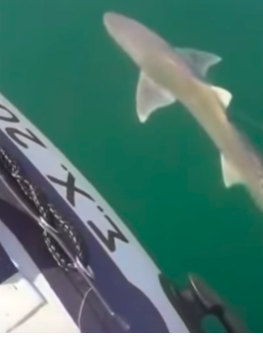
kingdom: Animalia
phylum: Chordata
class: Elasmobranchii
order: Carcharhiniformes
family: Triakidae
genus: Mustelus
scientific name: Mustelus mustelus
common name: Smooth-hound
